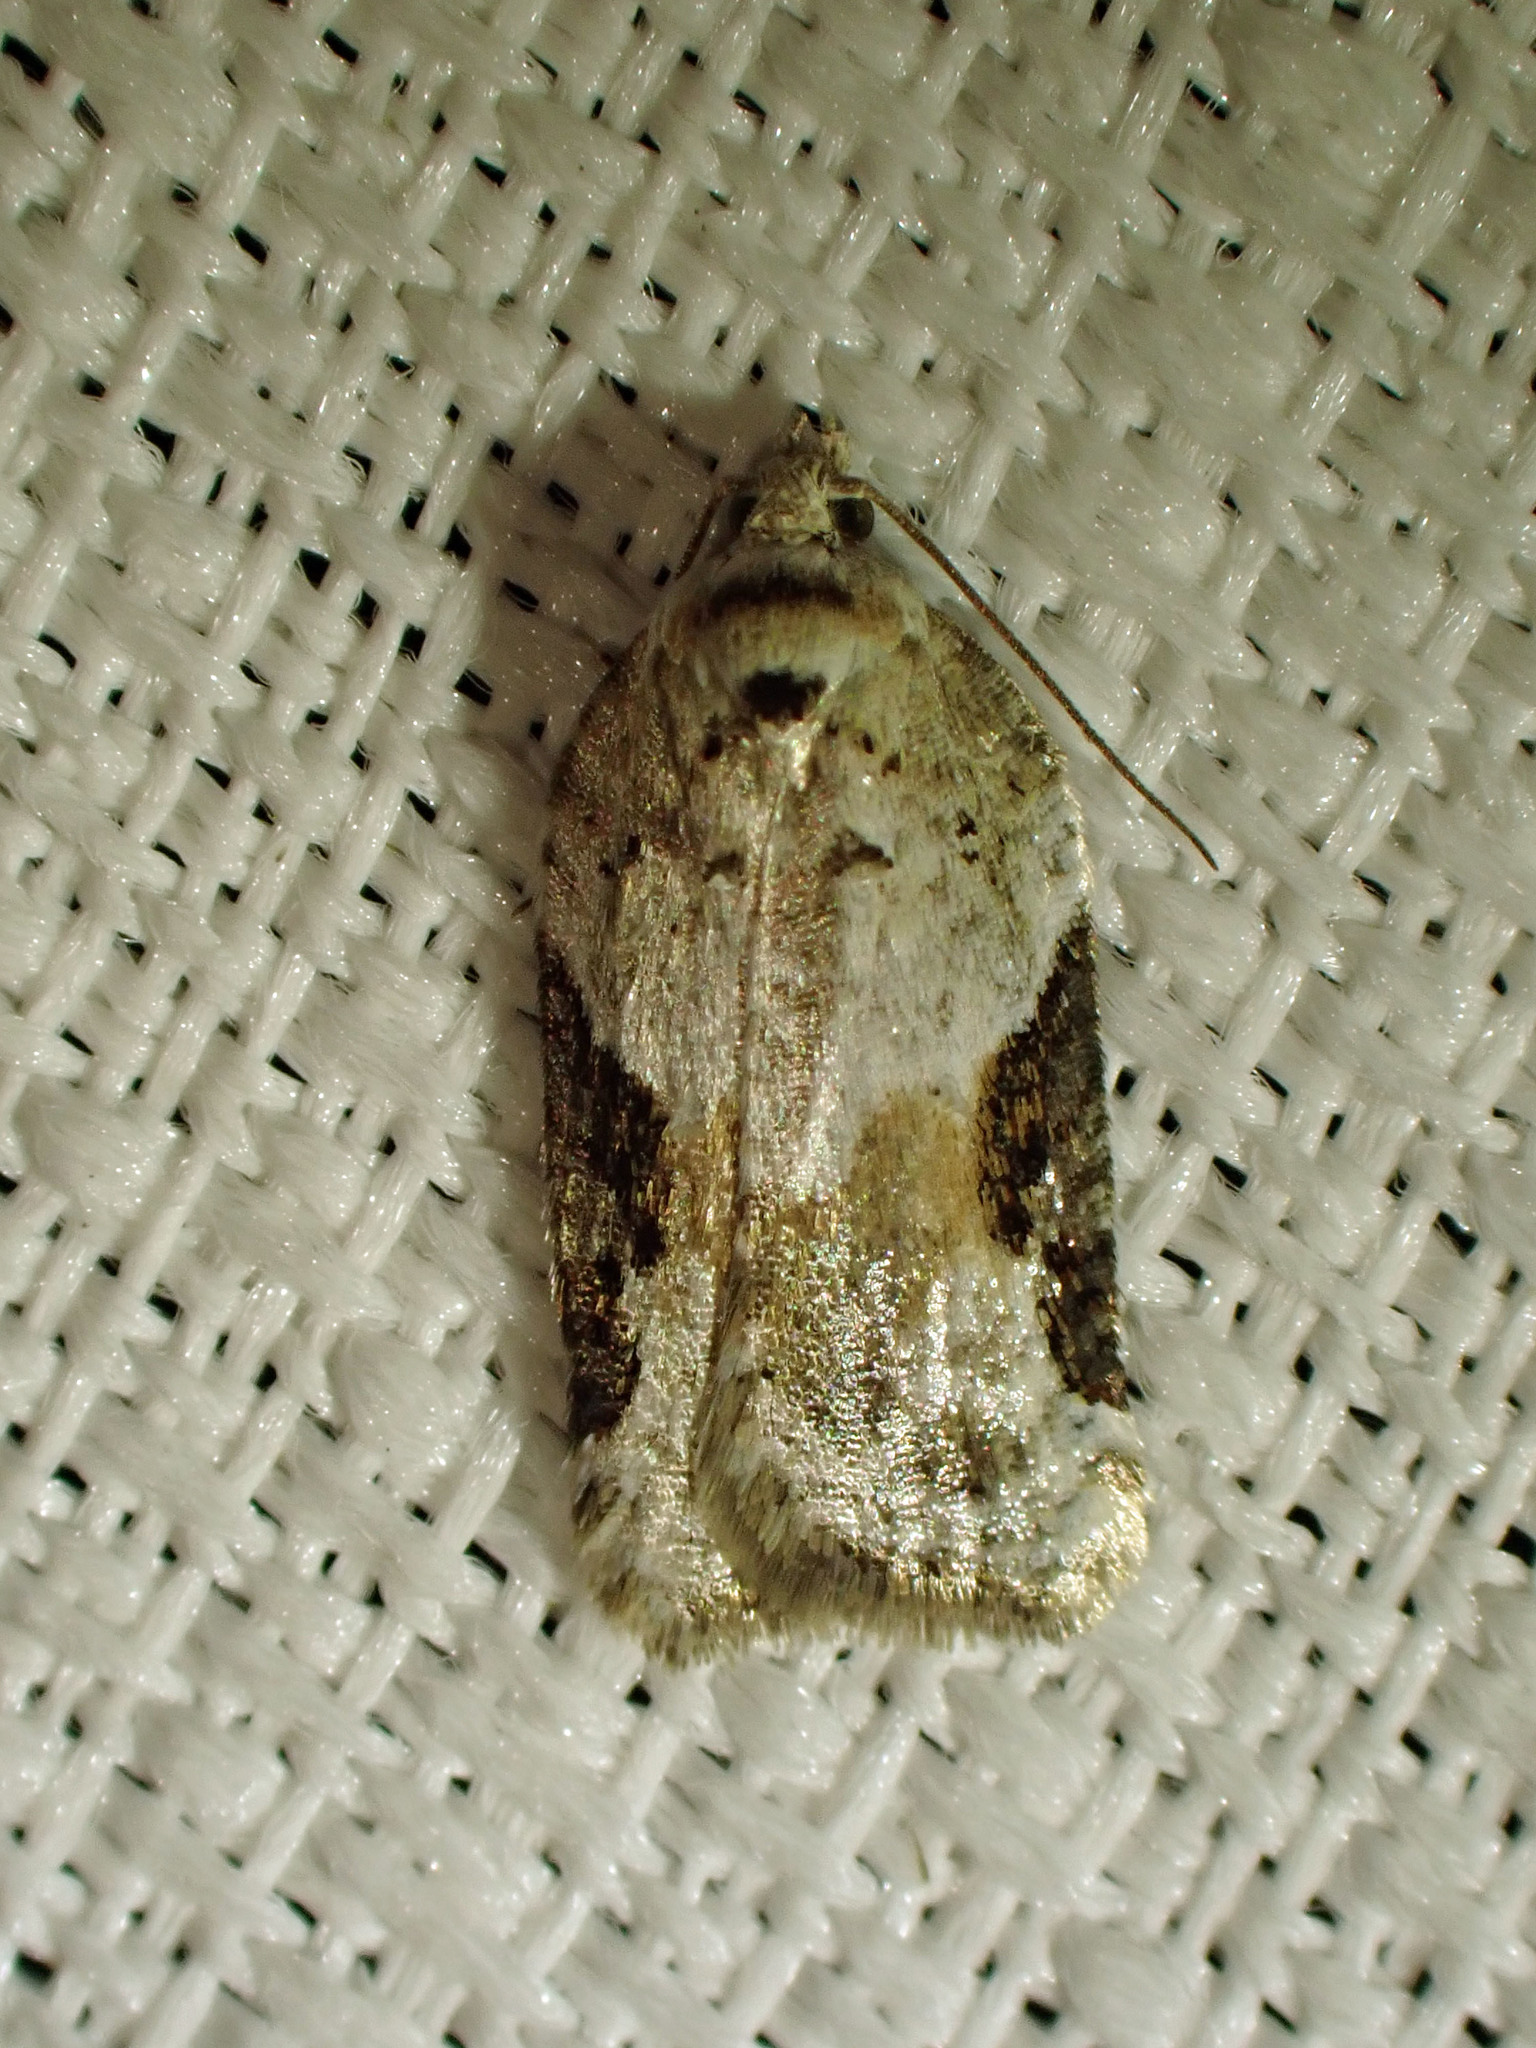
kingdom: Animalia
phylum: Arthropoda
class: Insecta
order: Lepidoptera
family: Tortricidae
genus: Acleris
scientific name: Acleris forbesana
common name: Forbes' acleris moth
